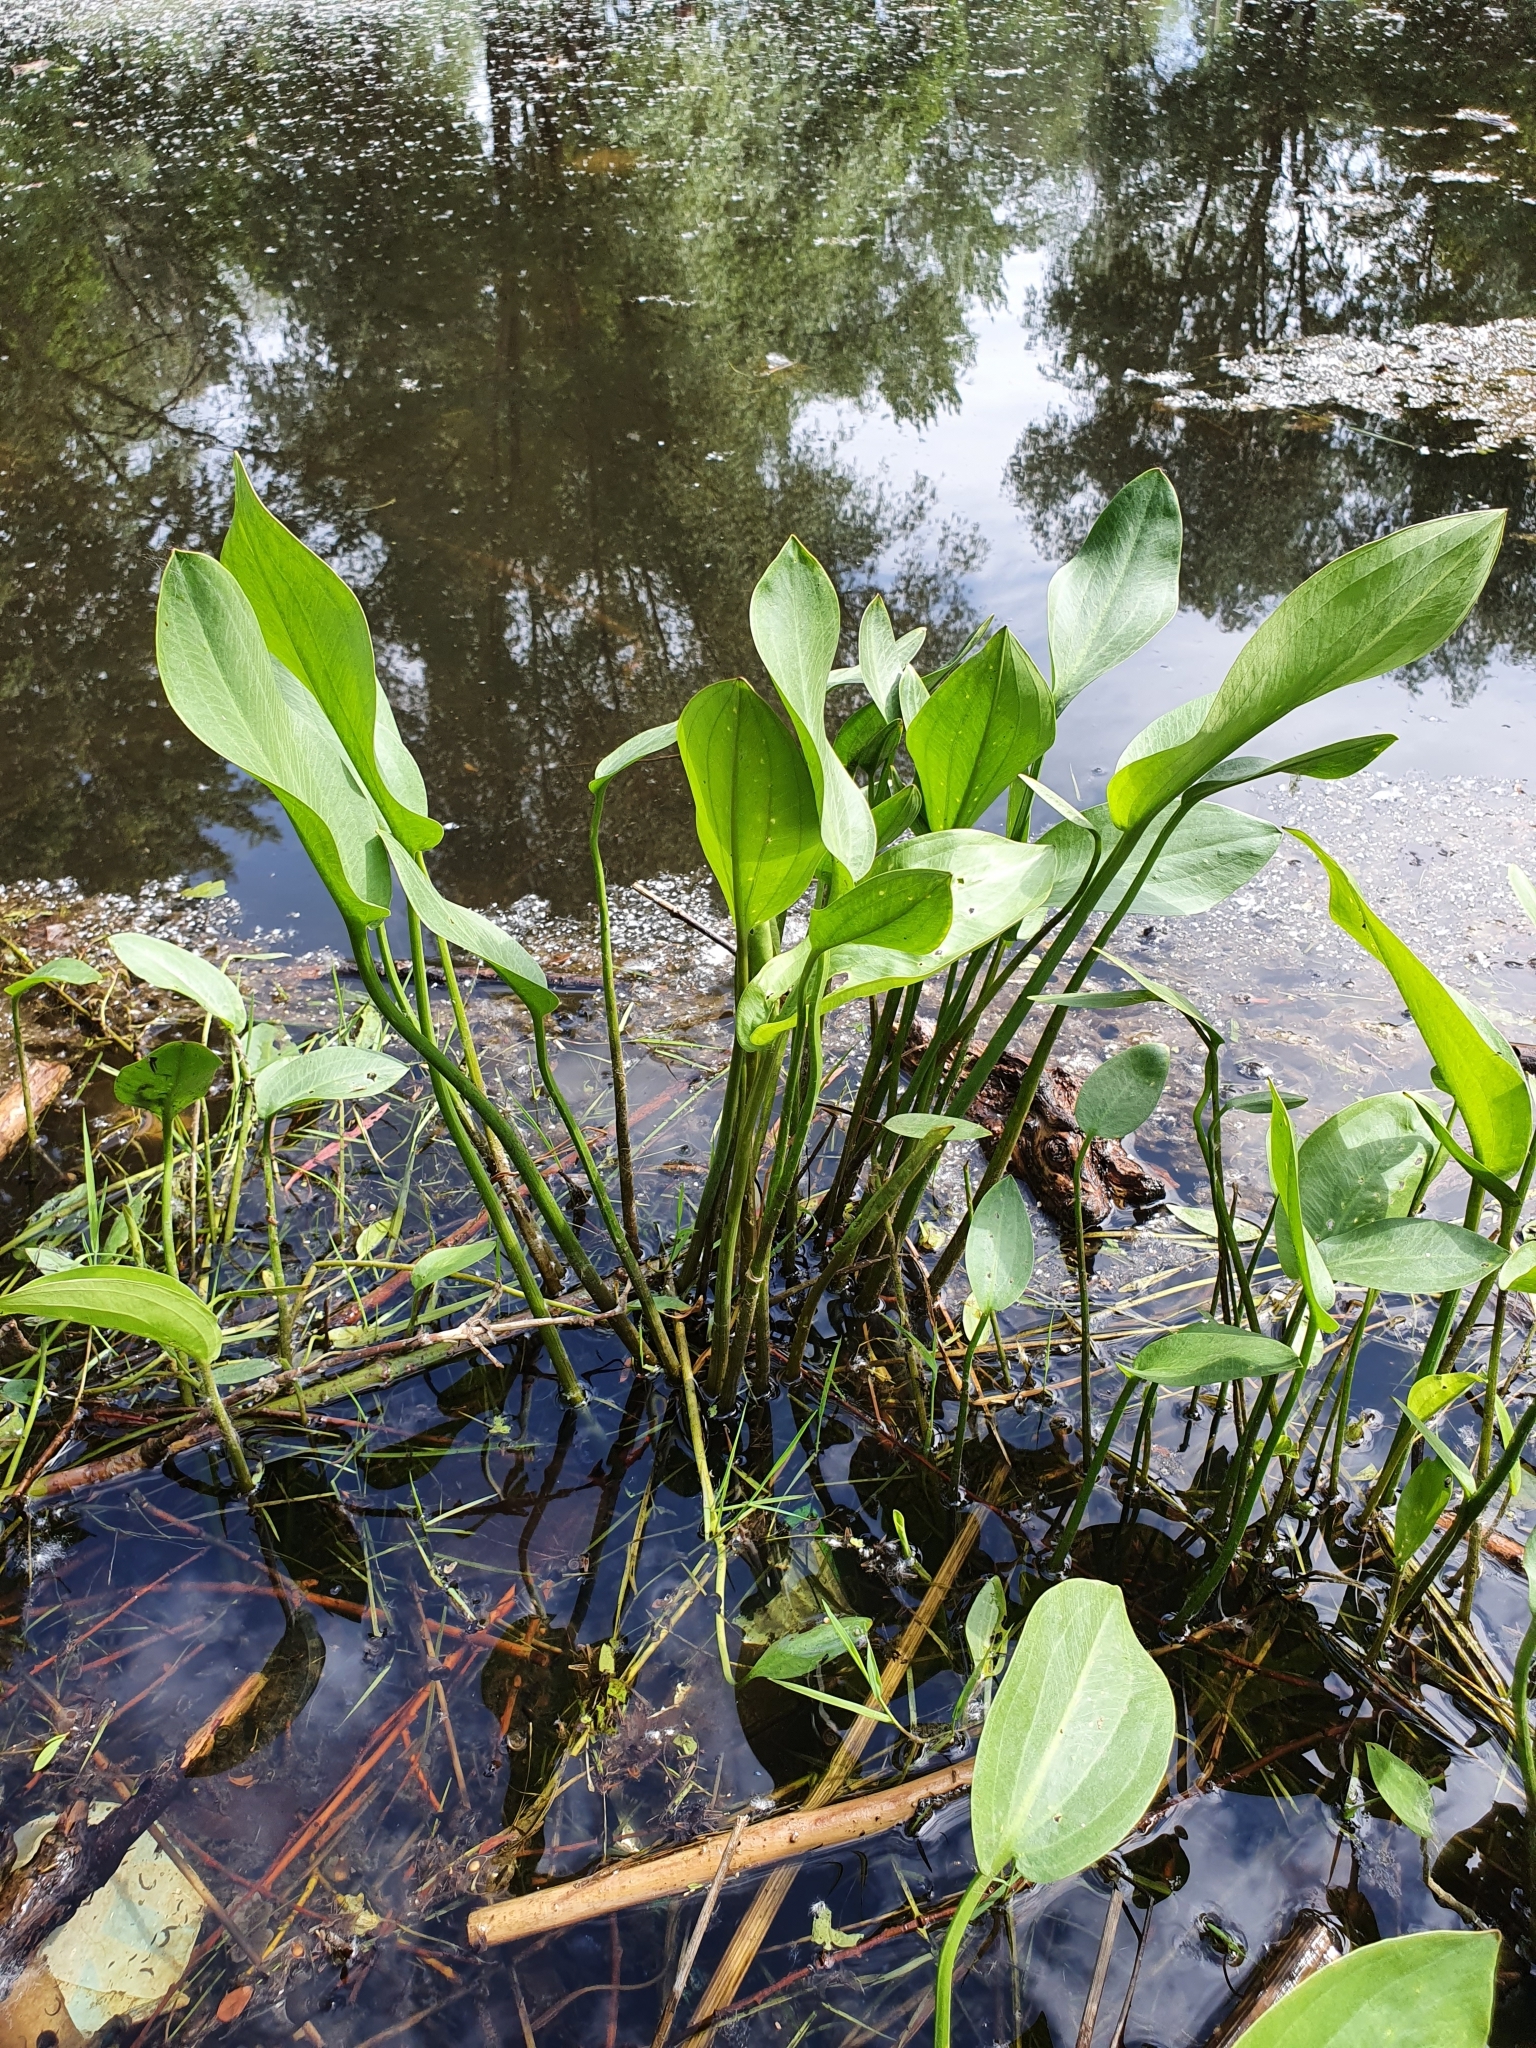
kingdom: Plantae
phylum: Tracheophyta
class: Liliopsida
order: Alismatales
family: Alismataceae
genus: Alisma
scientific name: Alisma plantago-aquatica
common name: Water-plantain
